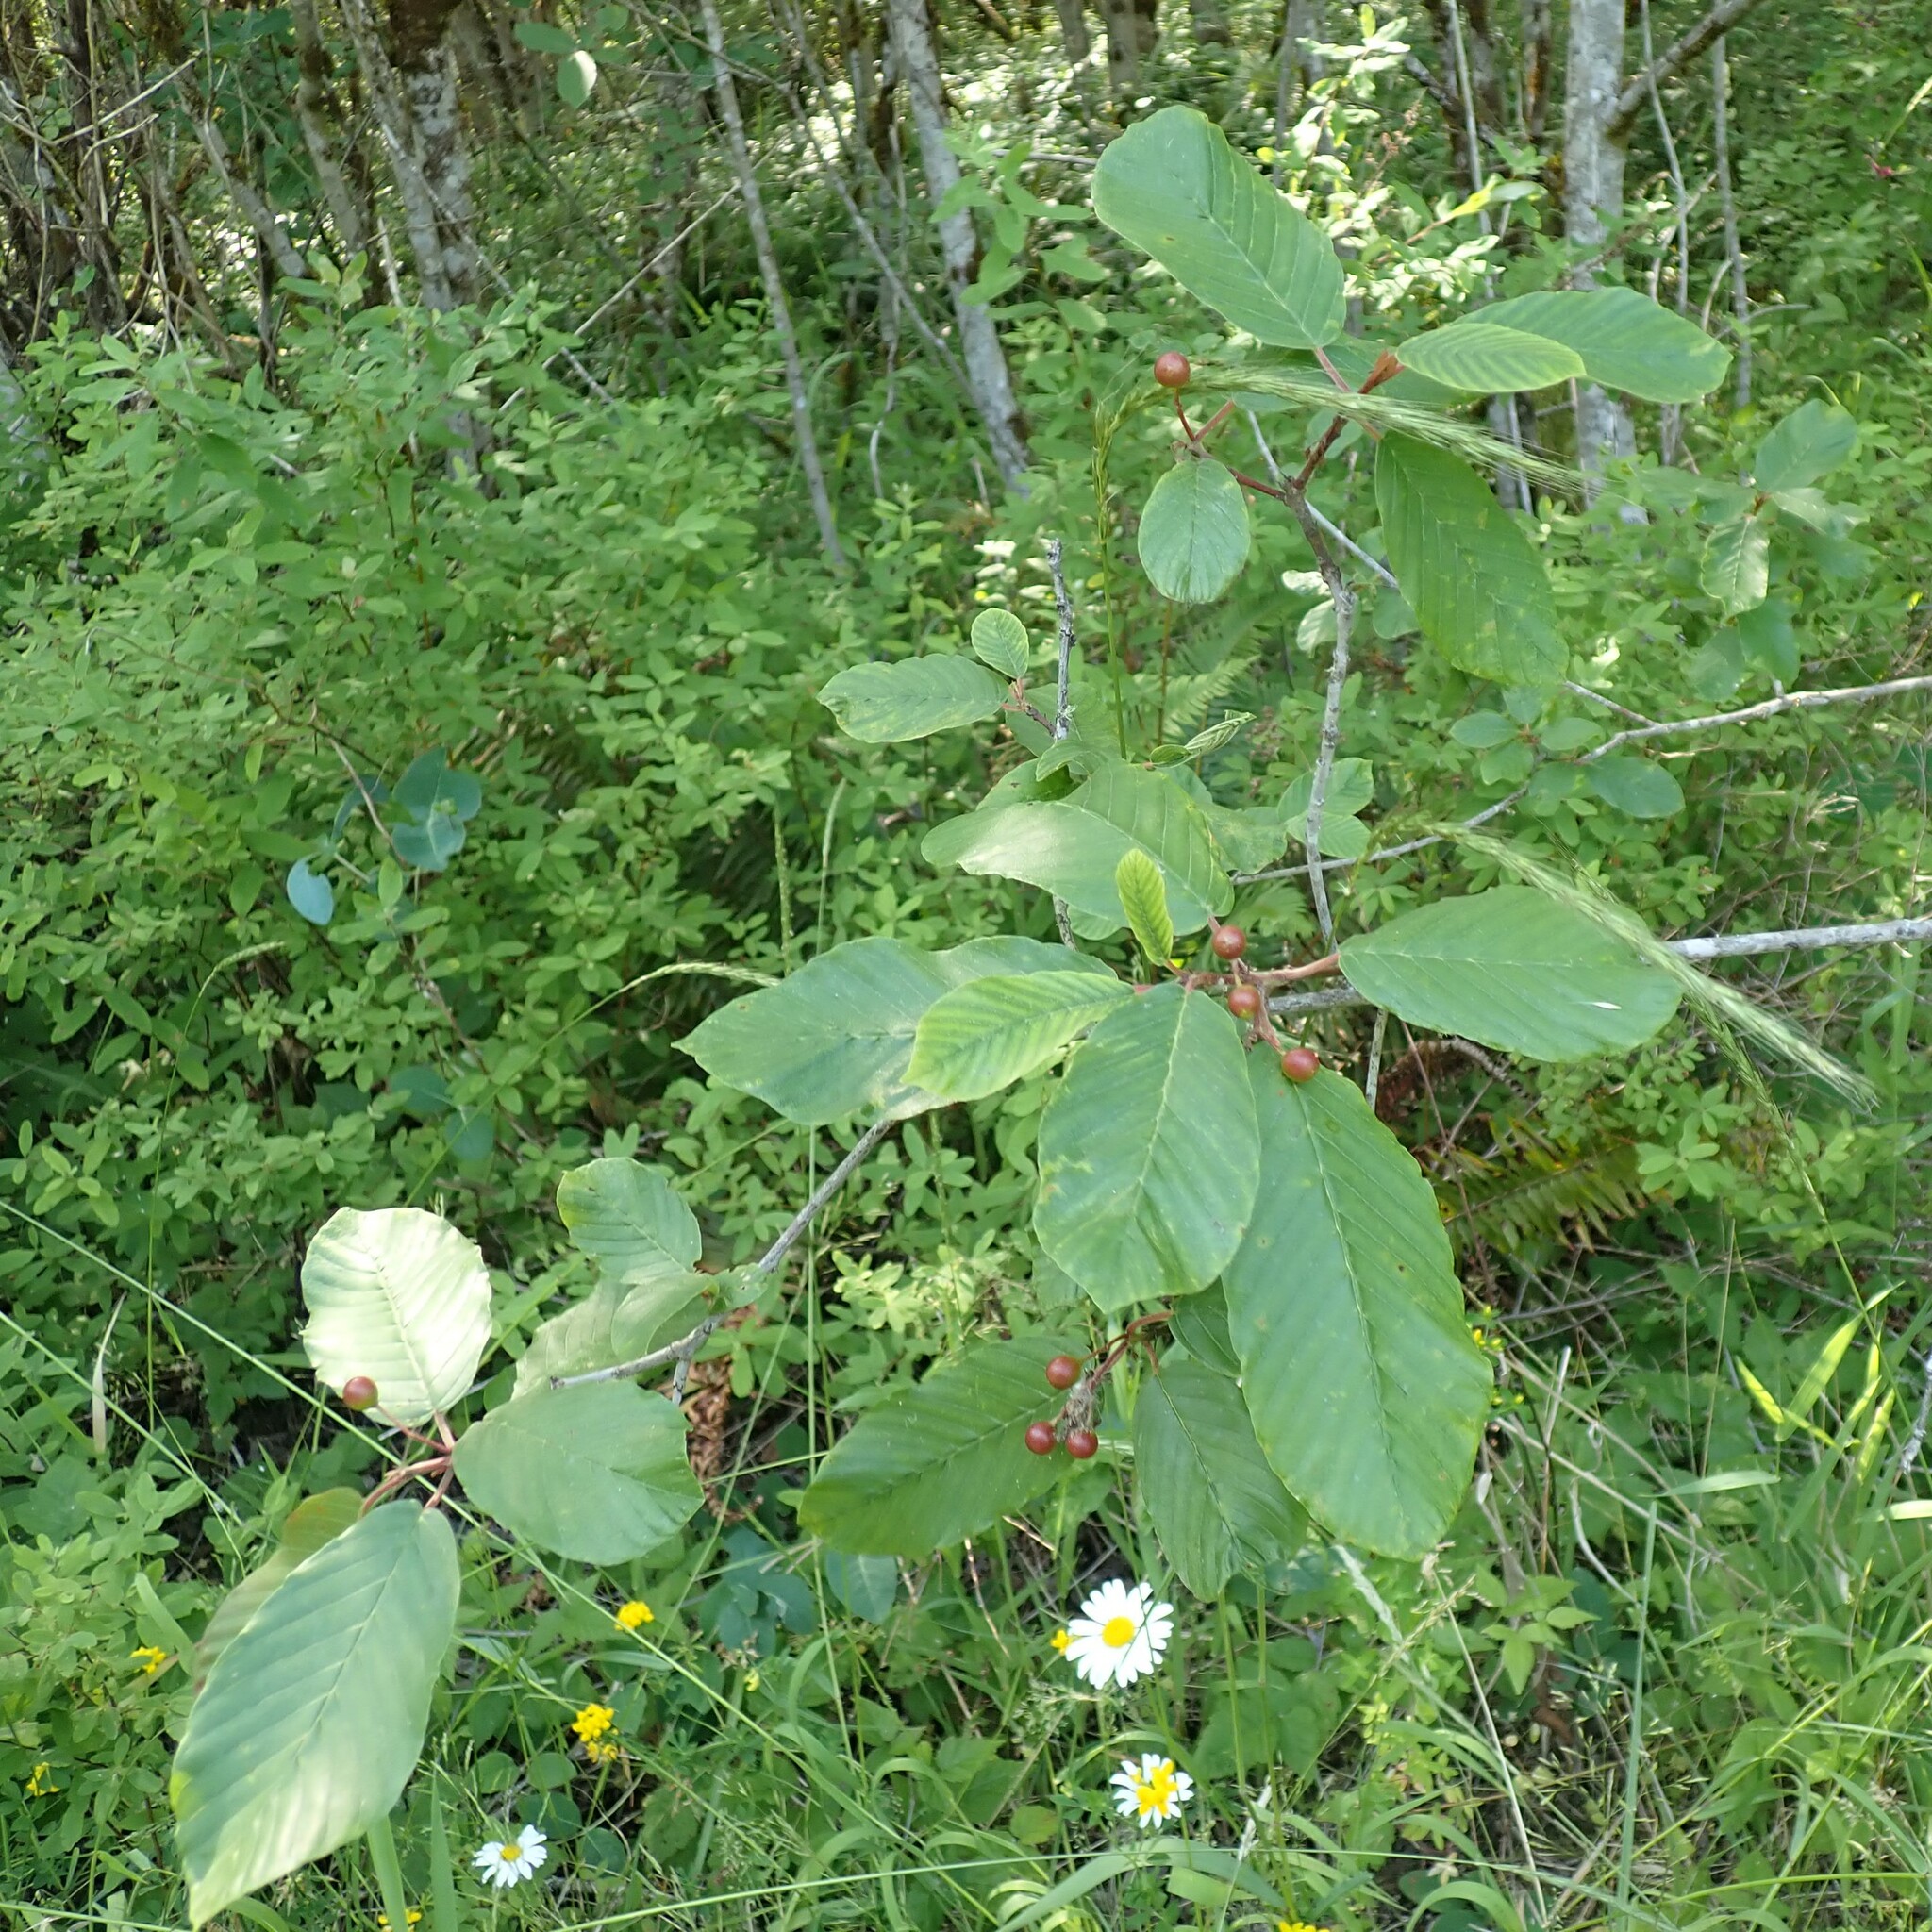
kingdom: Plantae
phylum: Tracheophyta
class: Magnoliopsida
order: Rosales
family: Rhamnaceae
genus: Frangula
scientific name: Frangula purshiana
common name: Cascara buckthorn
